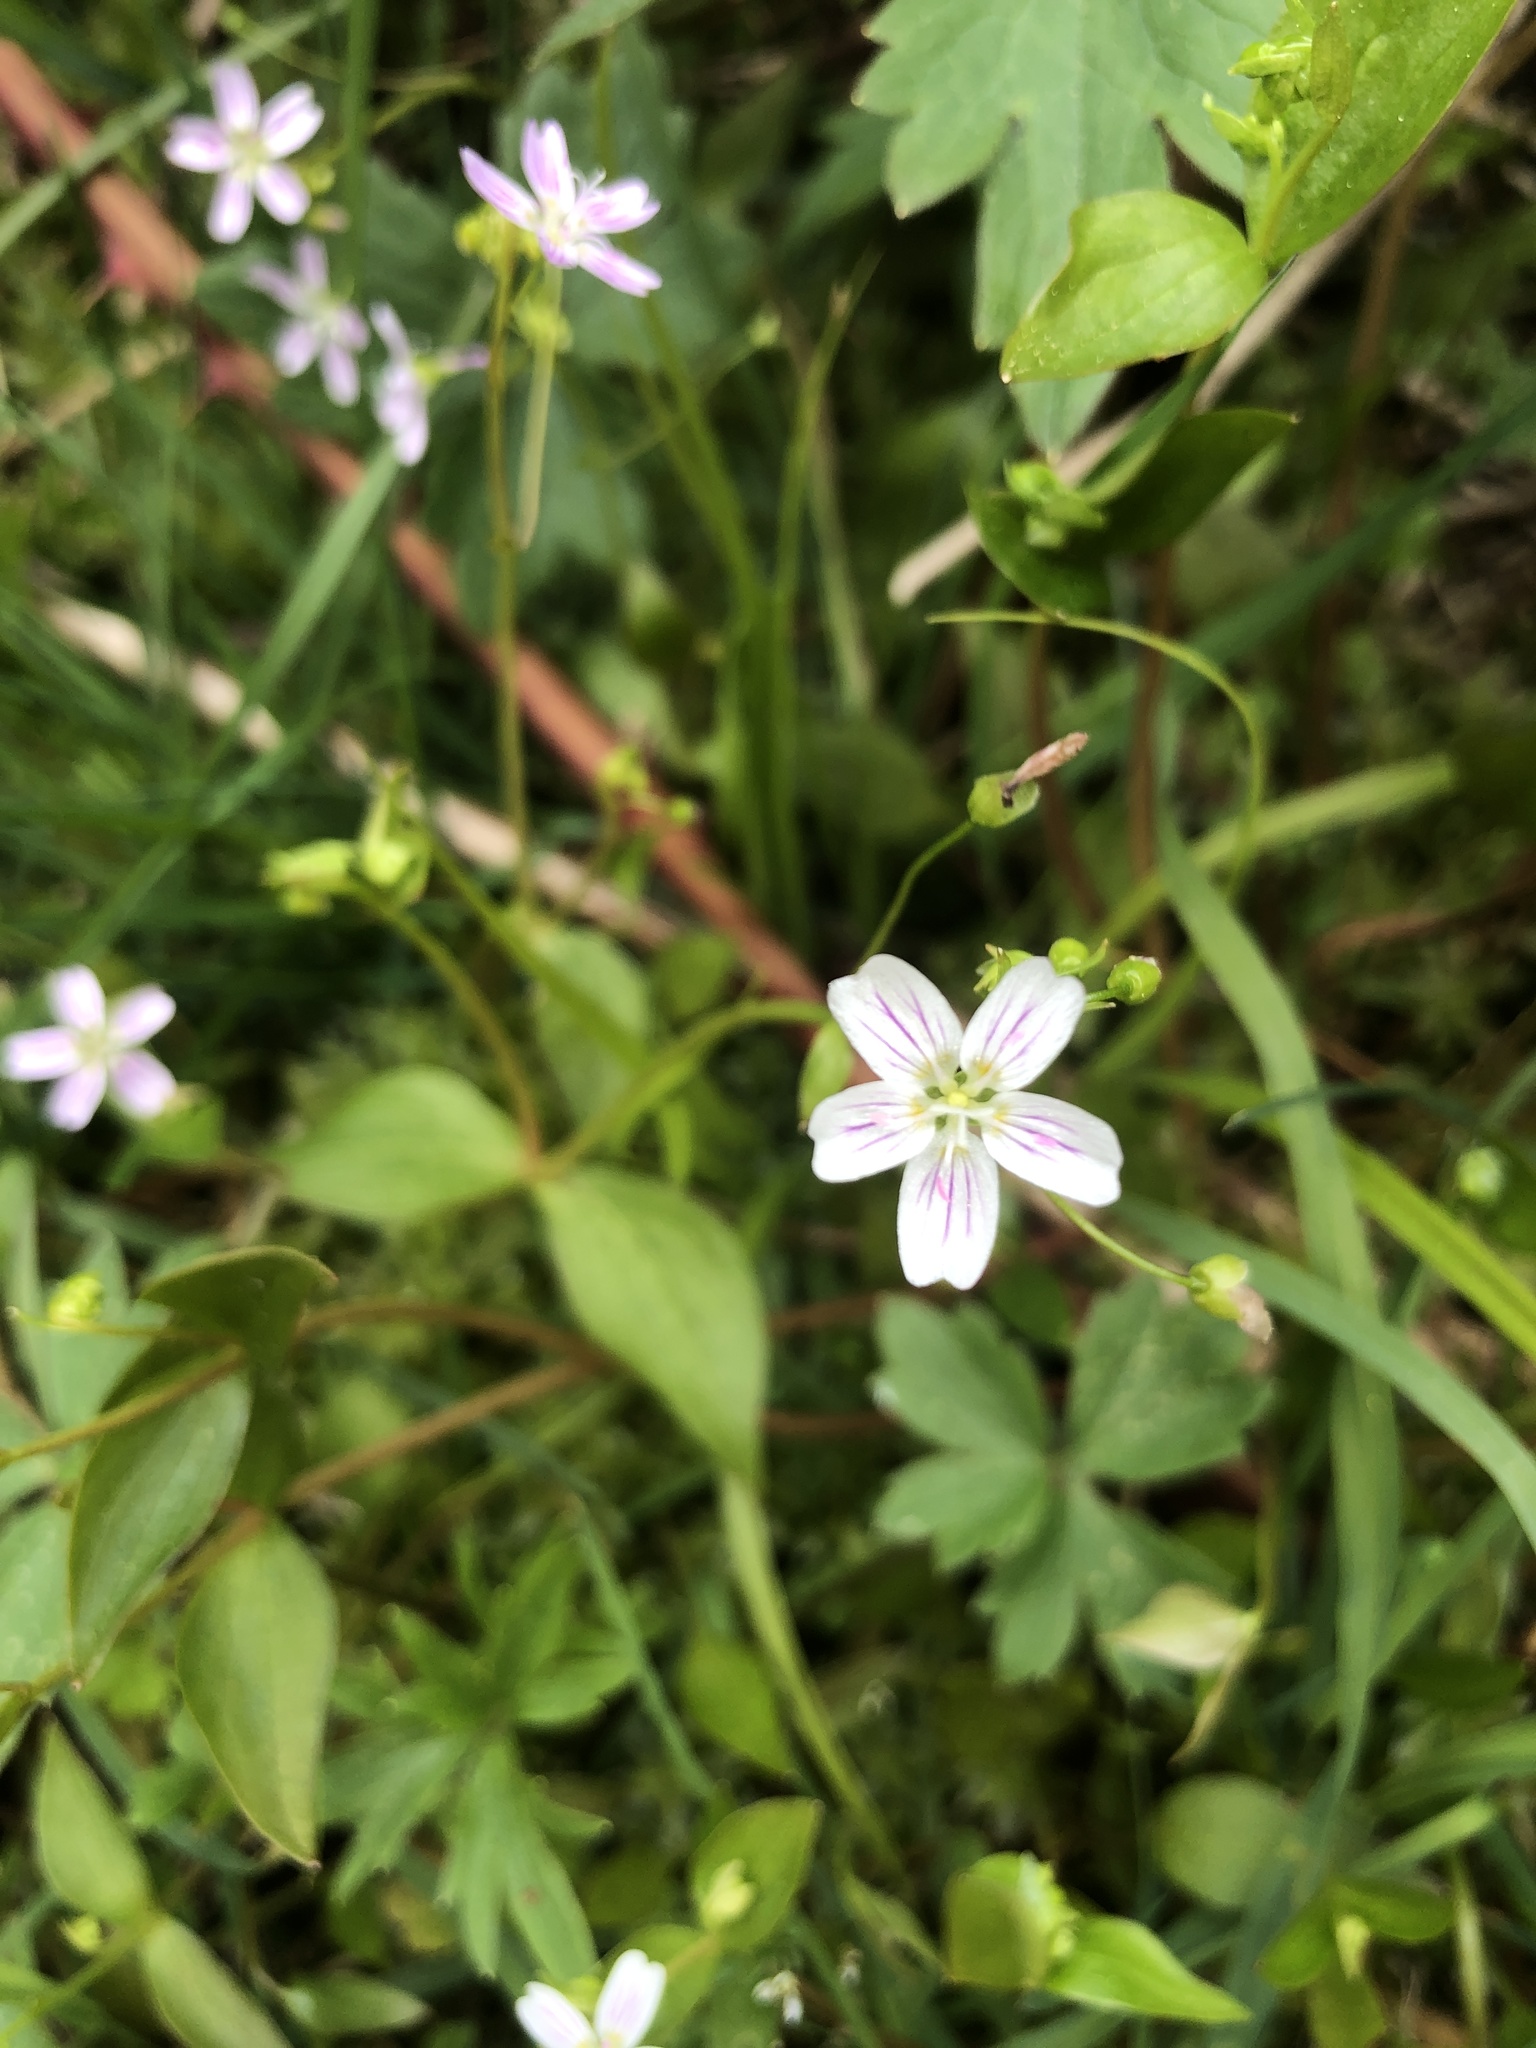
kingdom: Plantae
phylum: Tracheophyta
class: Magnoliopsida
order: Caryophyllales
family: Montiaceae
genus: Claytonia
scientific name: Claytonia sibirica
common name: Pink purslane
